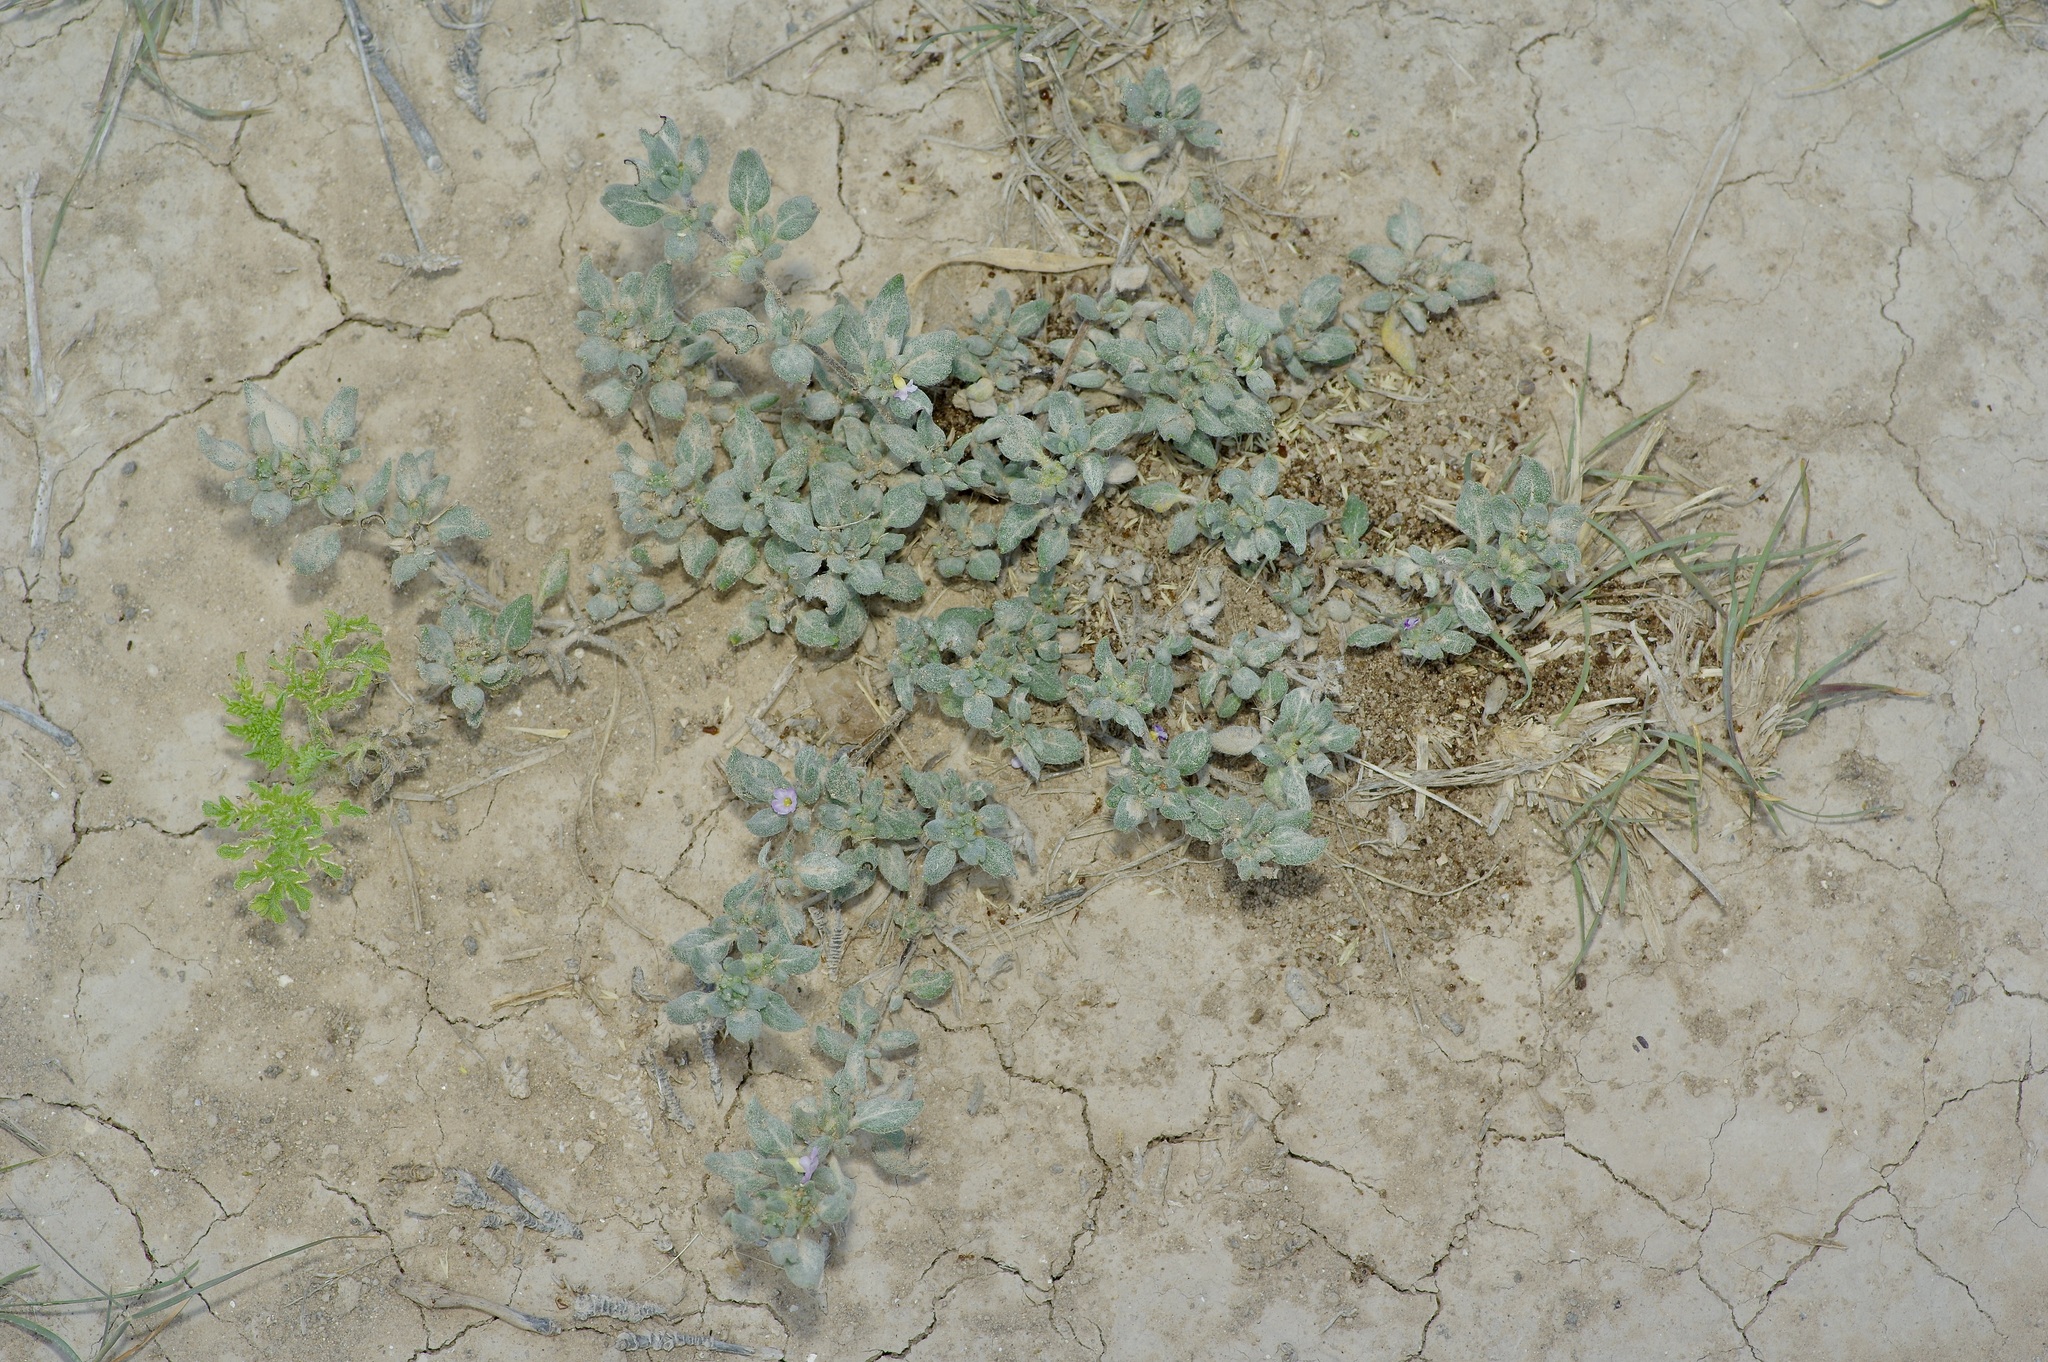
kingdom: Plantae
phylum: Tracheophyta
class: Magnoliopsida
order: Boraginales
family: Ehretiaceae
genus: Tiquilia
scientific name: Tiquilia canescens
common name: Hairy tiquilia
